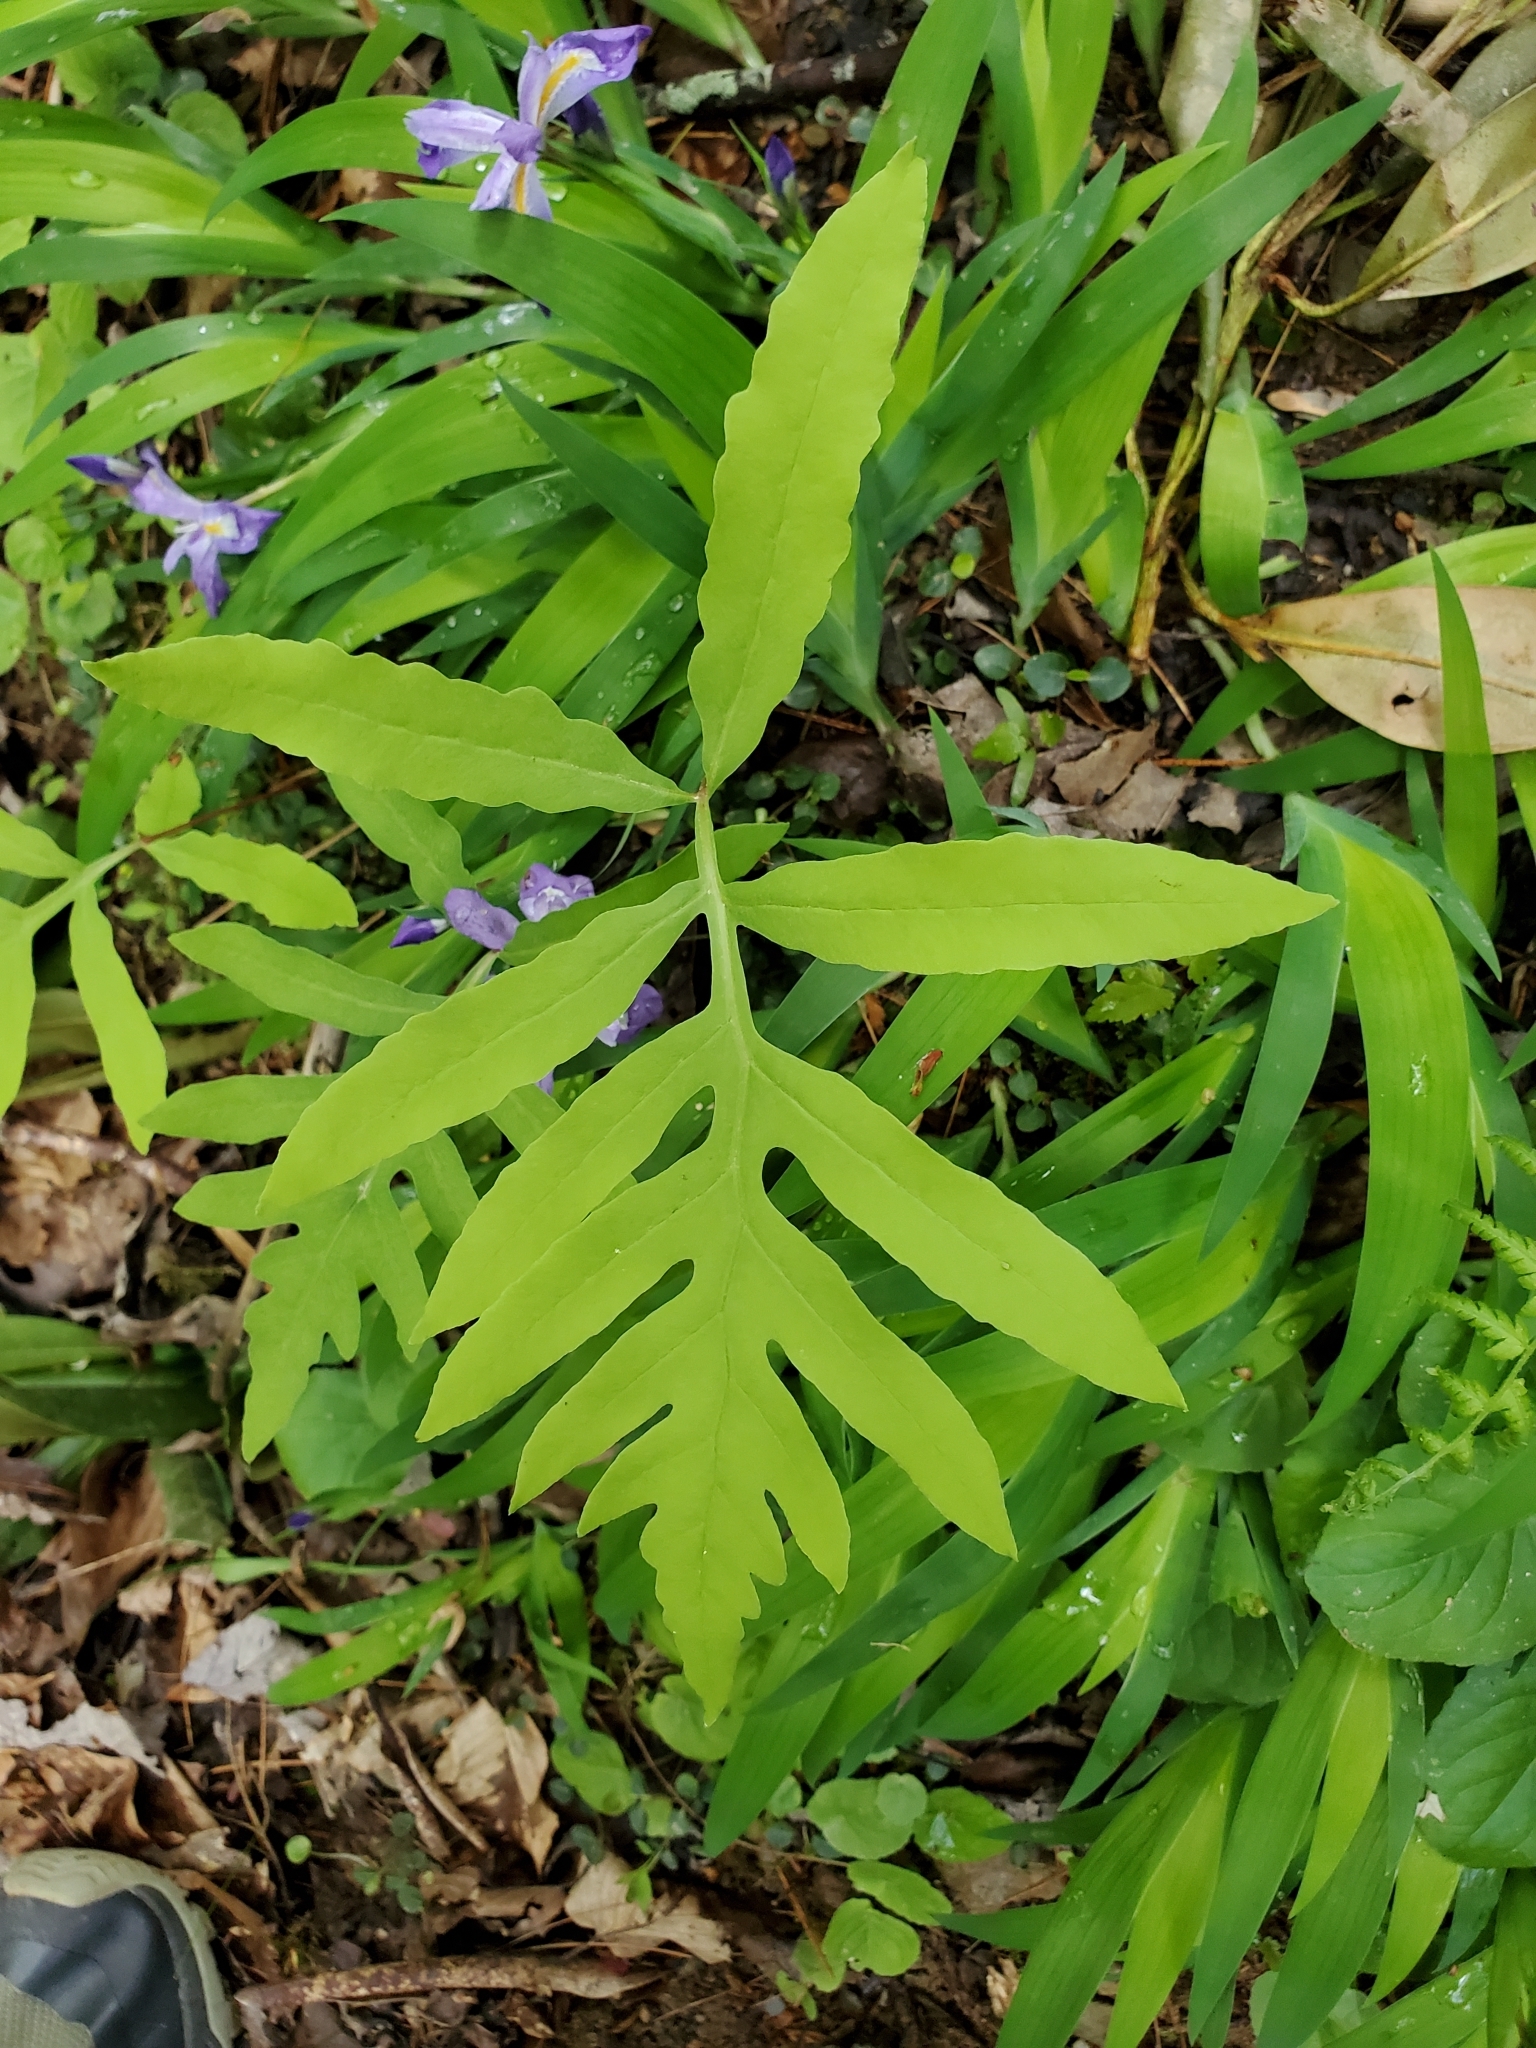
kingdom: Plantae
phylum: Tracheophyta
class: Polypodiopsida
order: Polypodiales
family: Onocleaceae
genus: Onoclea
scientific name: Onoclea sensibilis
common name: Sensitive fern
